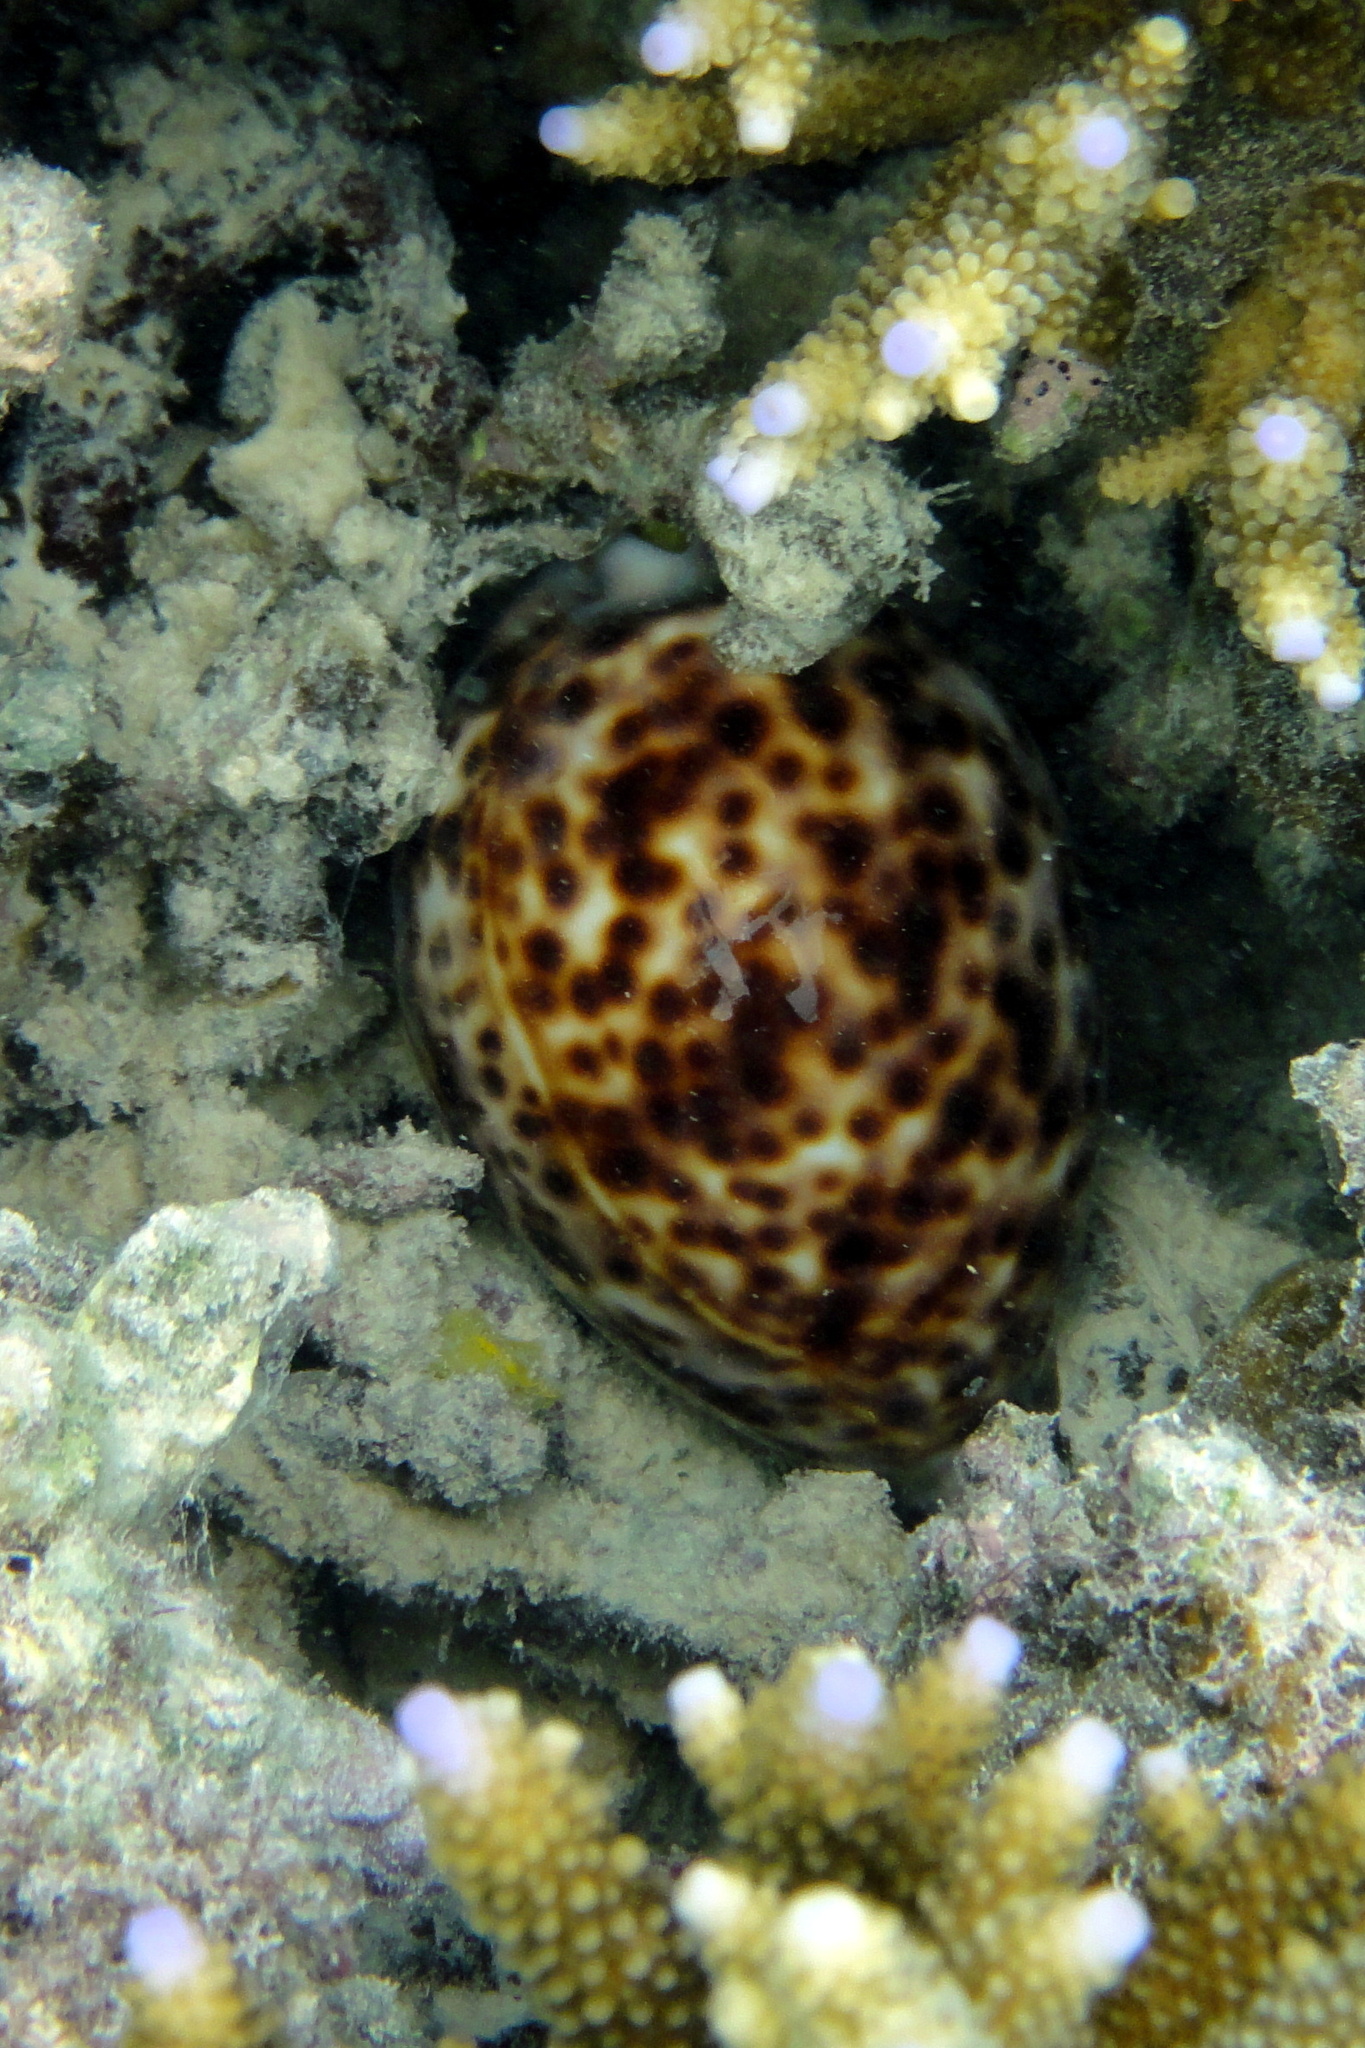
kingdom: Animalia
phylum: Mollusca
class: Gastropoda
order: Littorinimorpha
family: Cypraeidae
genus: Cypraea
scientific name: Cypraea tigris
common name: Tiger cowrie
